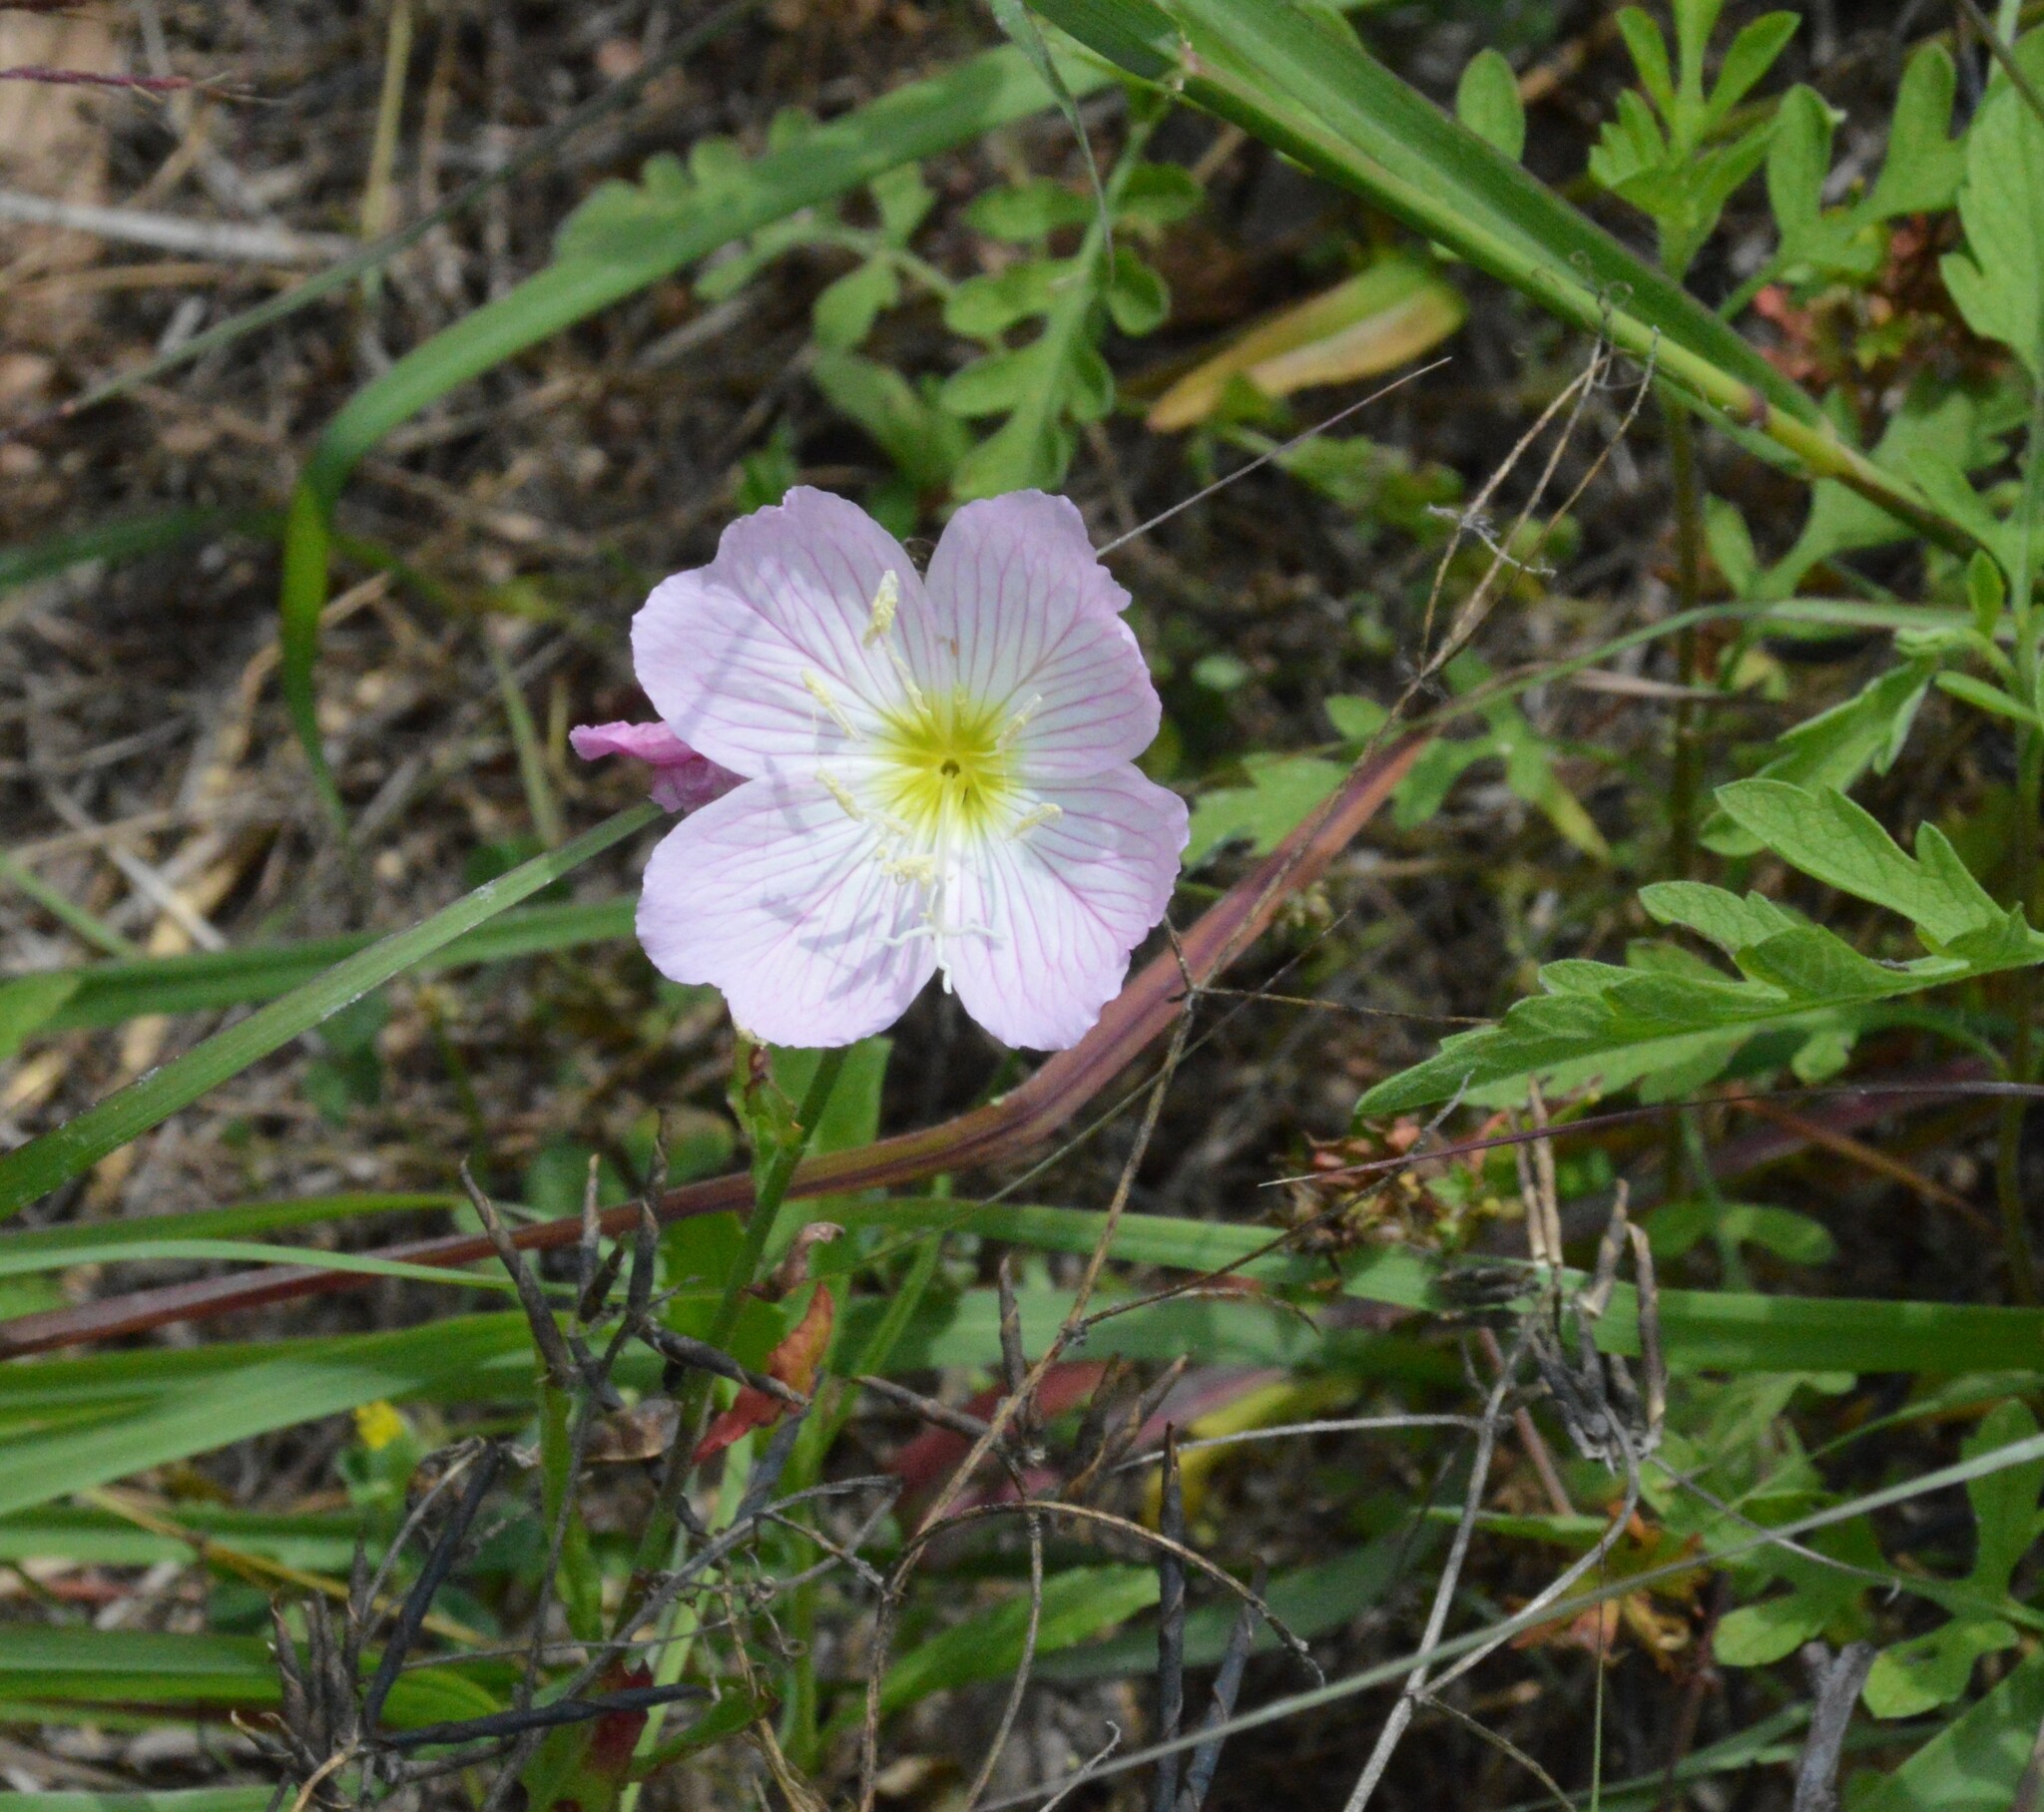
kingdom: Plantae
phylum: Tracheophyta
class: Magnoliopsida
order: Myrtales
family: Onagraceae
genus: Oenothera
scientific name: Oenothera speciosa
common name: White evening-primrose
